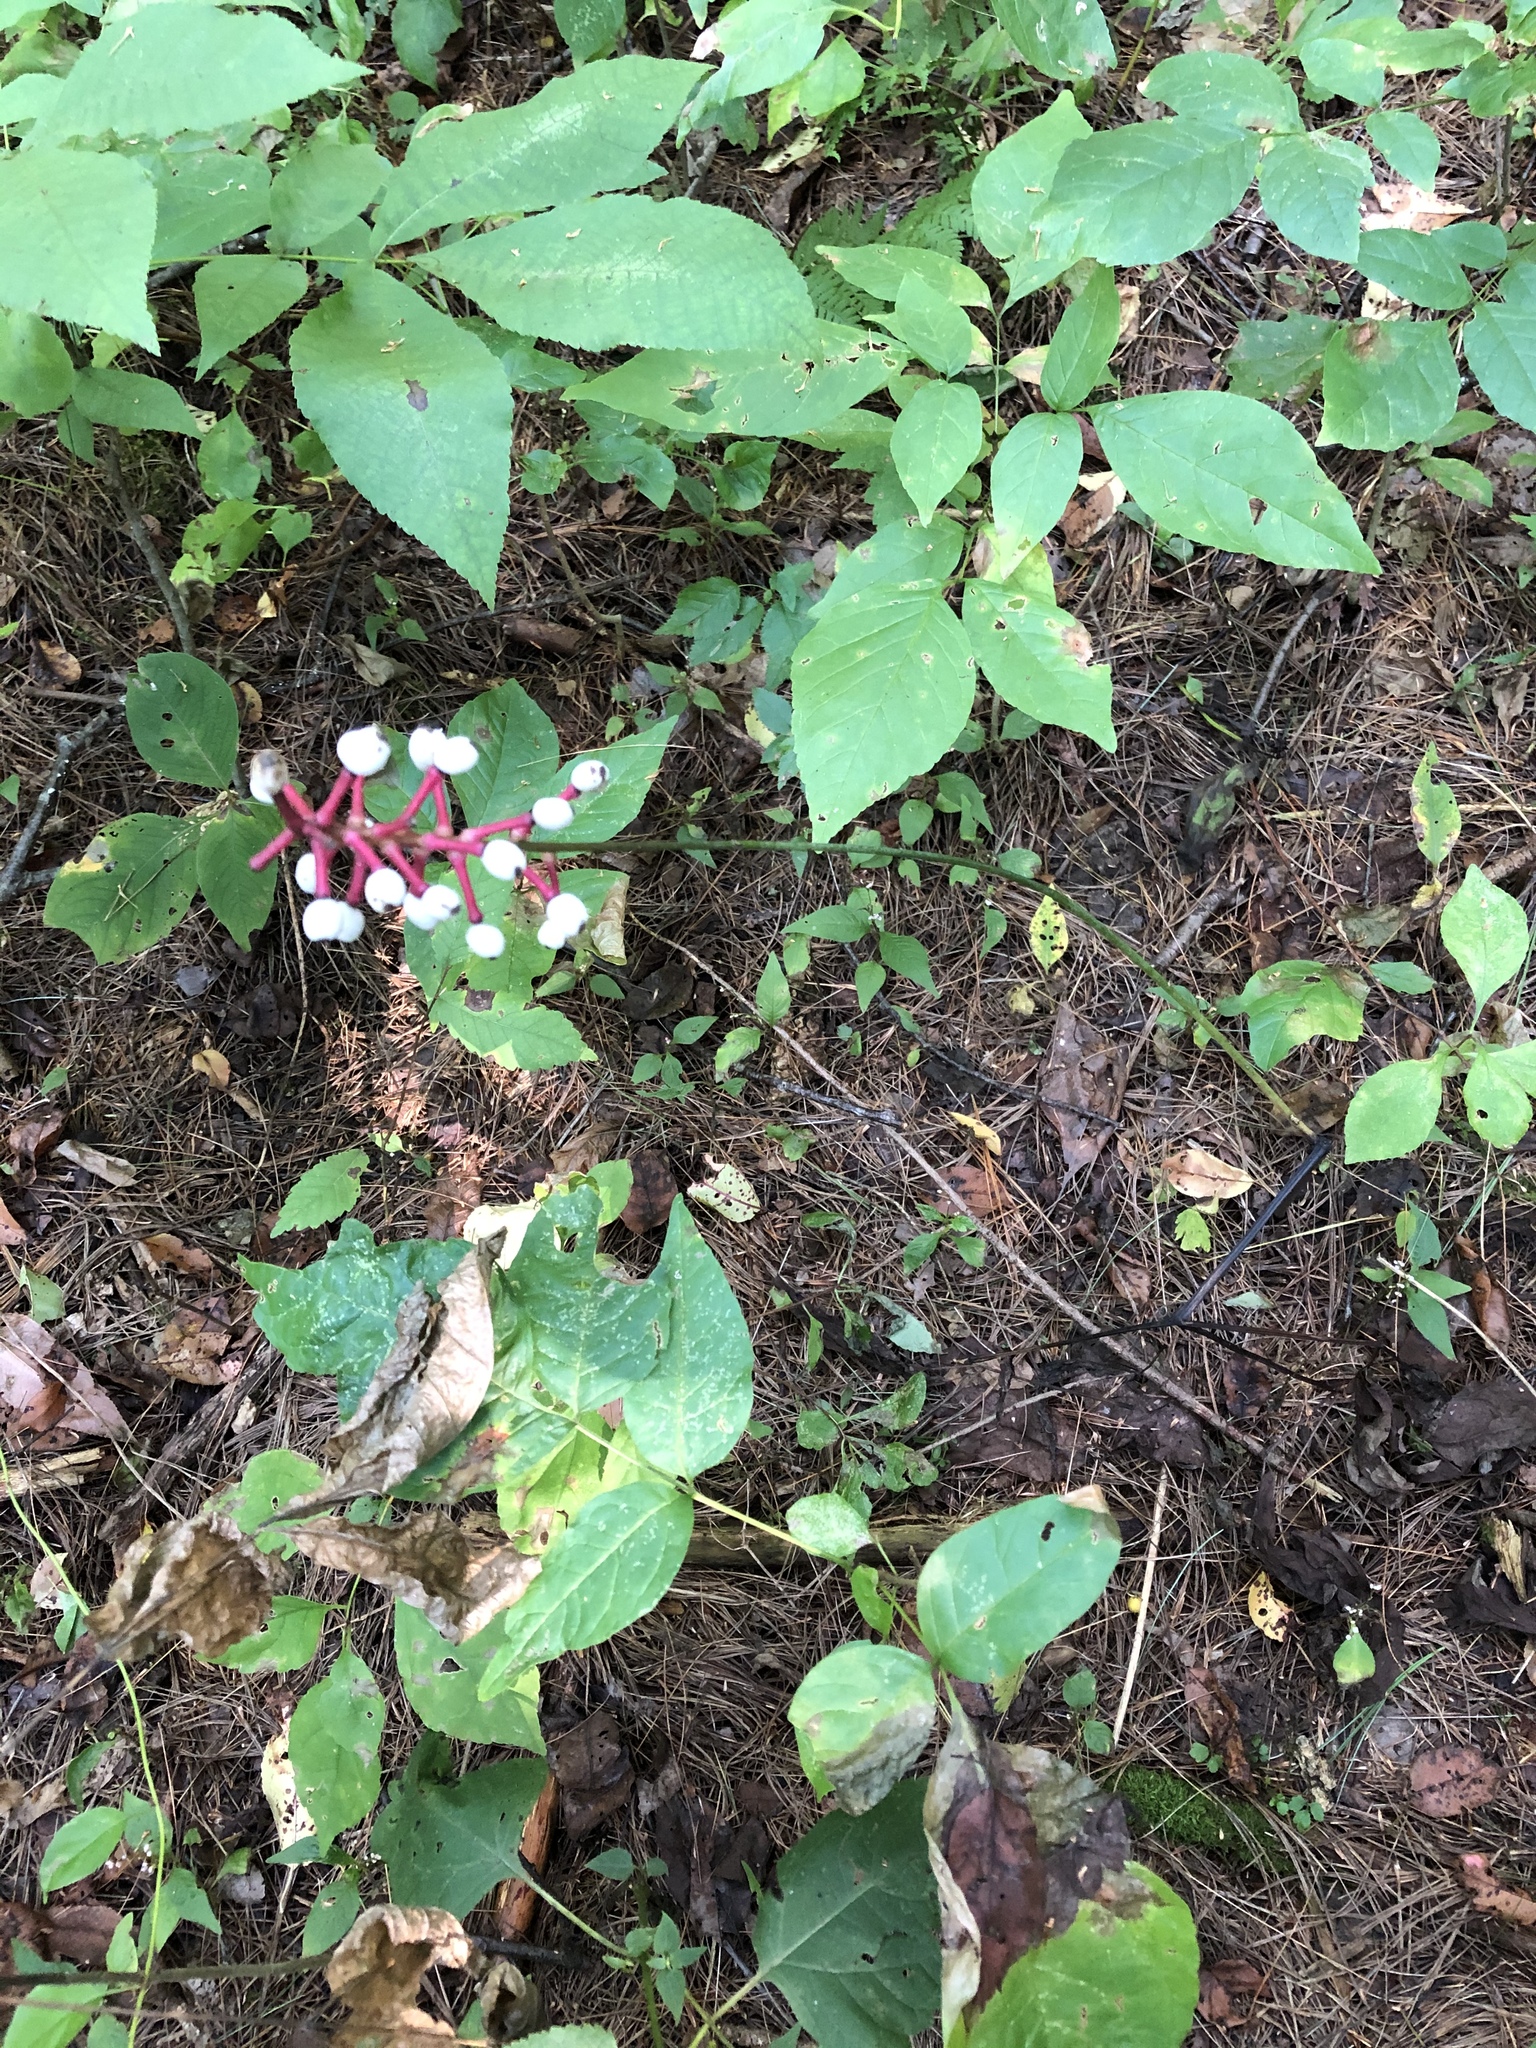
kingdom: Plantae
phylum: Tracheophyta
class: Magnoliopsida
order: Ranunculales
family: Ranunculaceae
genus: Actaea
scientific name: Actaea pachypoda
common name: Doll's-eyes
